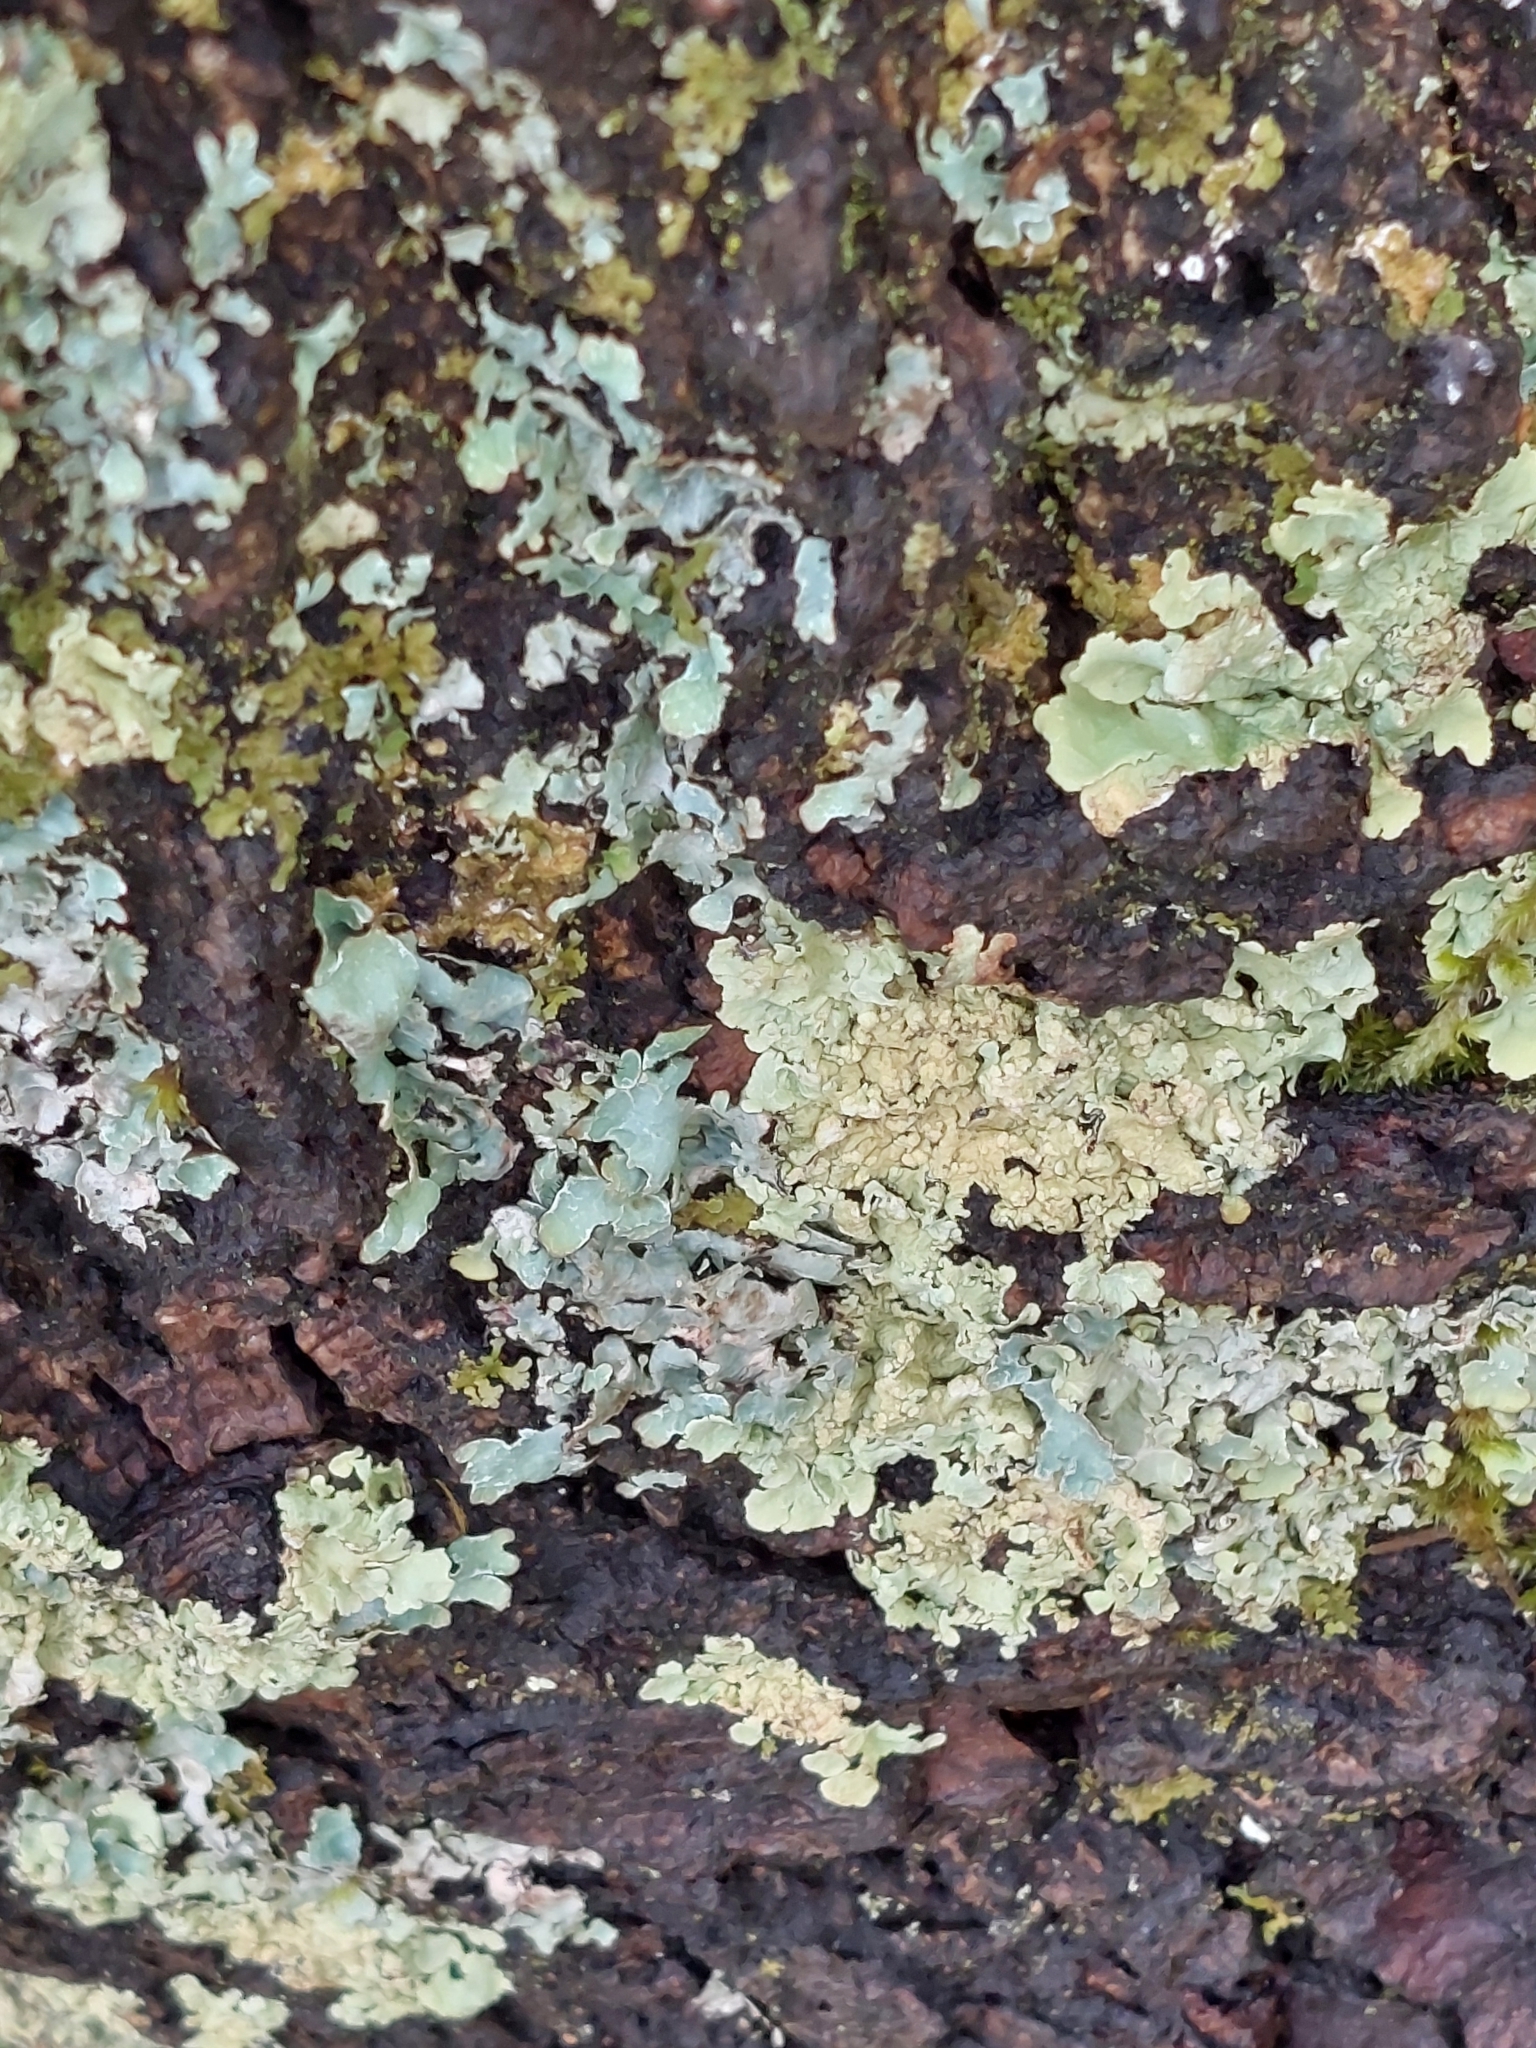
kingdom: Fungi
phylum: Ascomycota
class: Lecanoromycetes
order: Lecanorales
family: Parmeliaceae
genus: Parmelia
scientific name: Parmelia sulcata
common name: Netted shield lichen
